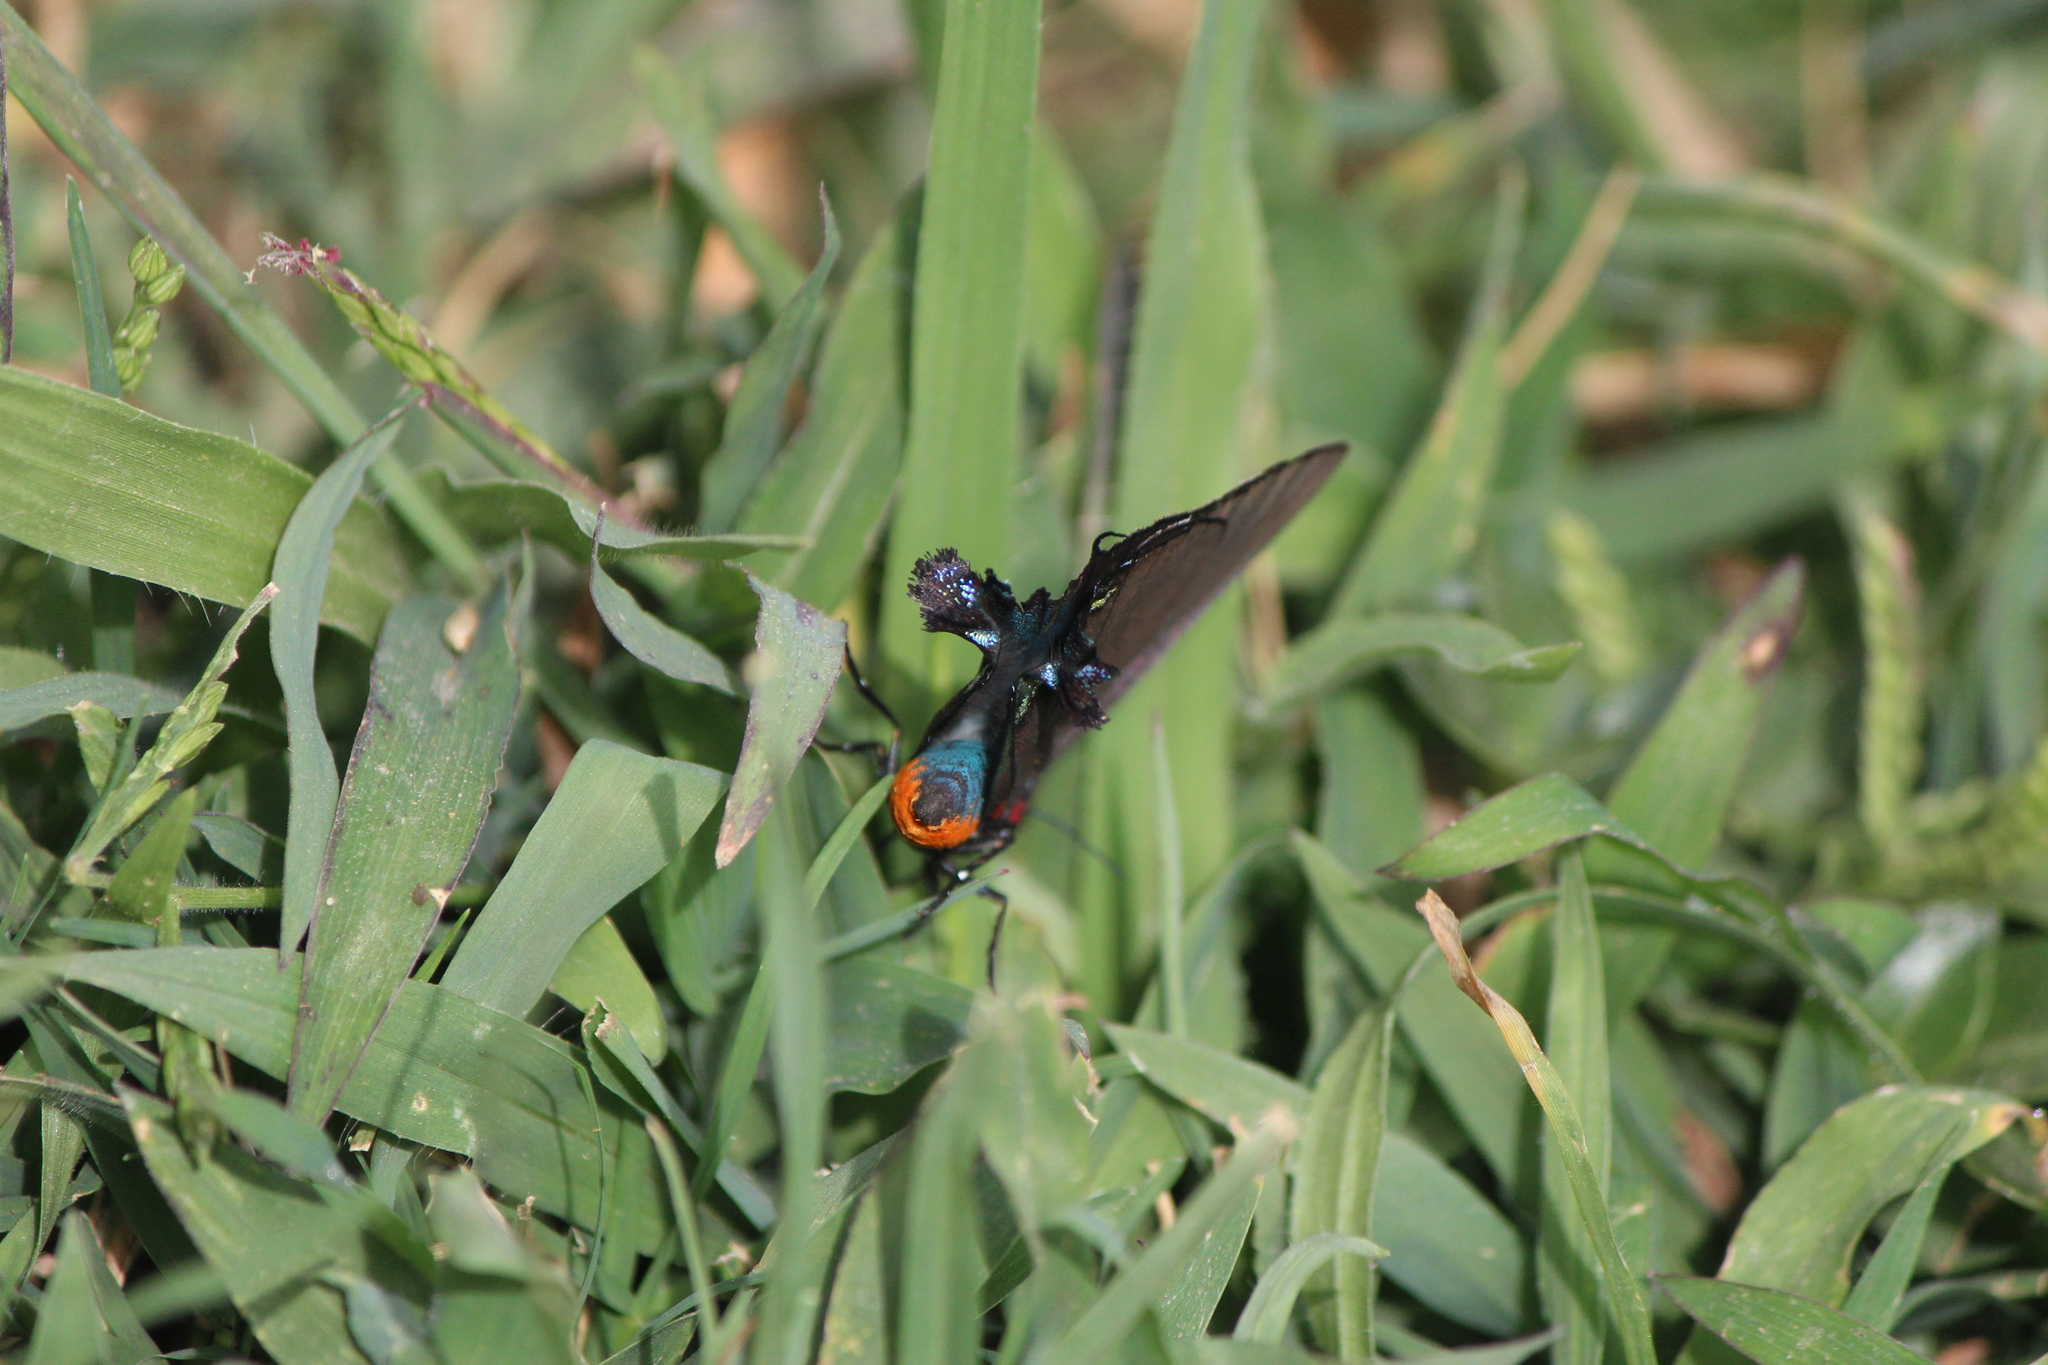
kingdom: Animalia
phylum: Arthropoda
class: Insecta
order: Lepidoptera
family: Lycaenidae
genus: Atlides
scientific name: Atlides halesus
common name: Great purple hairstreak
